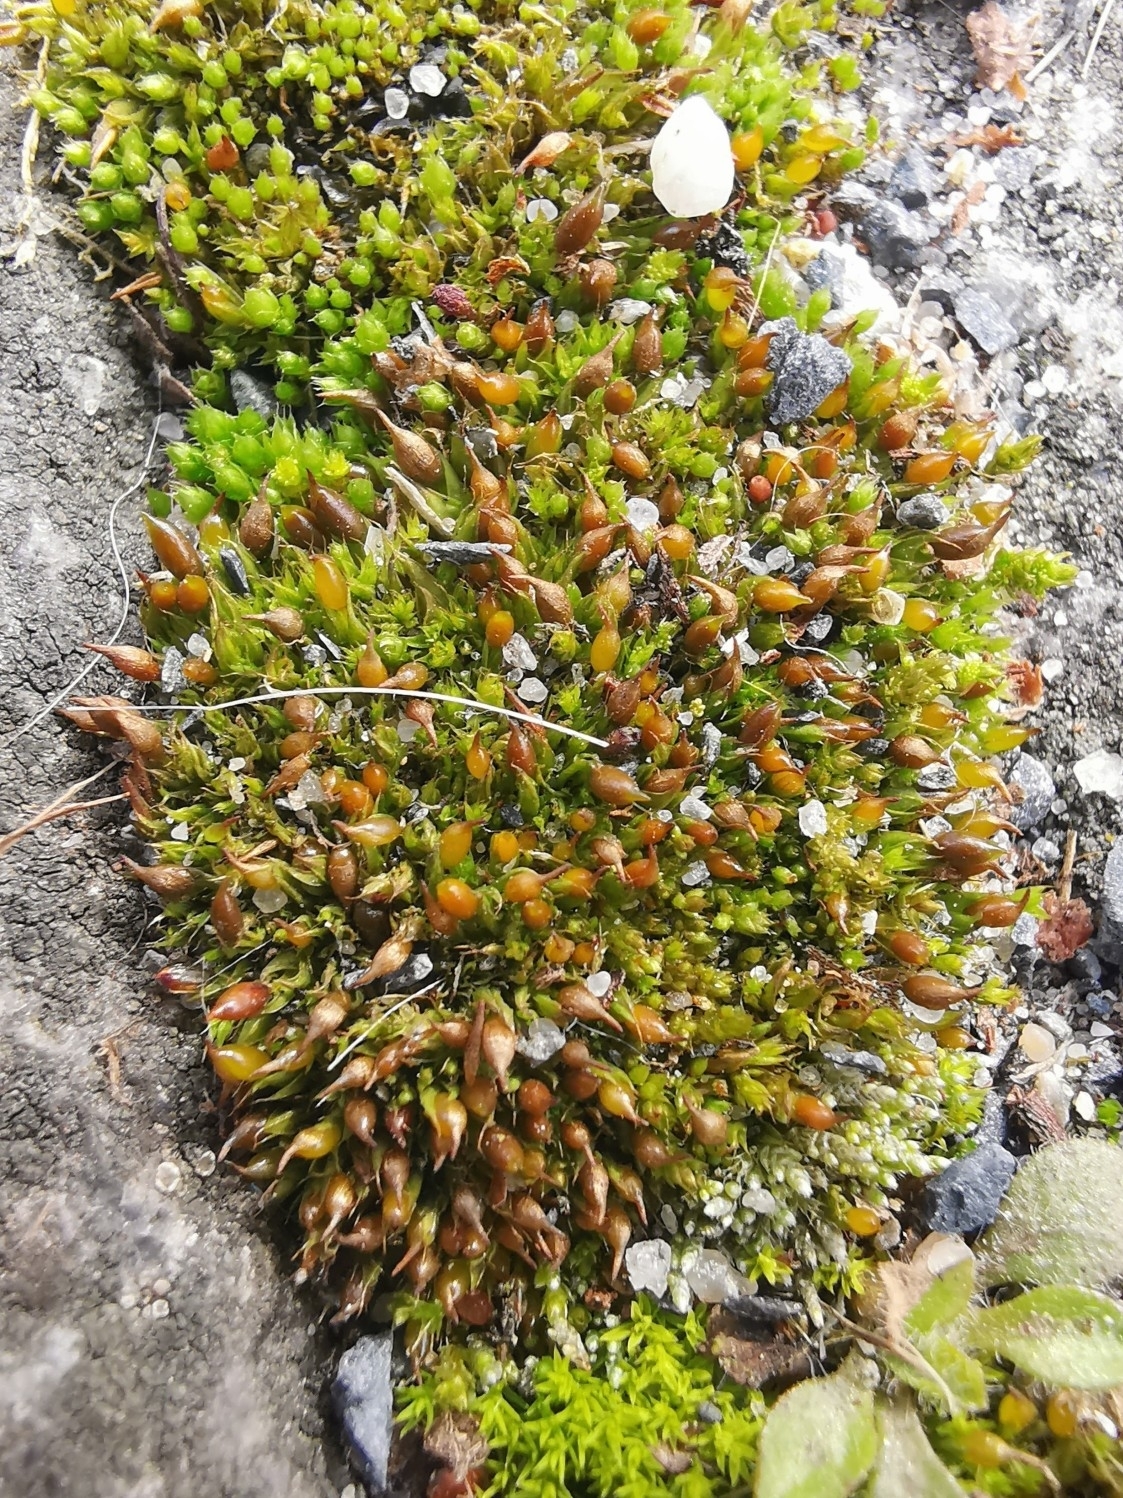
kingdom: Plantae
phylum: Bryophyta
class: Bryopsida
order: Pottiales
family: Pottiaceae
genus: Tortula
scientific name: Tortula protobryoides
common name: Tall pottia
